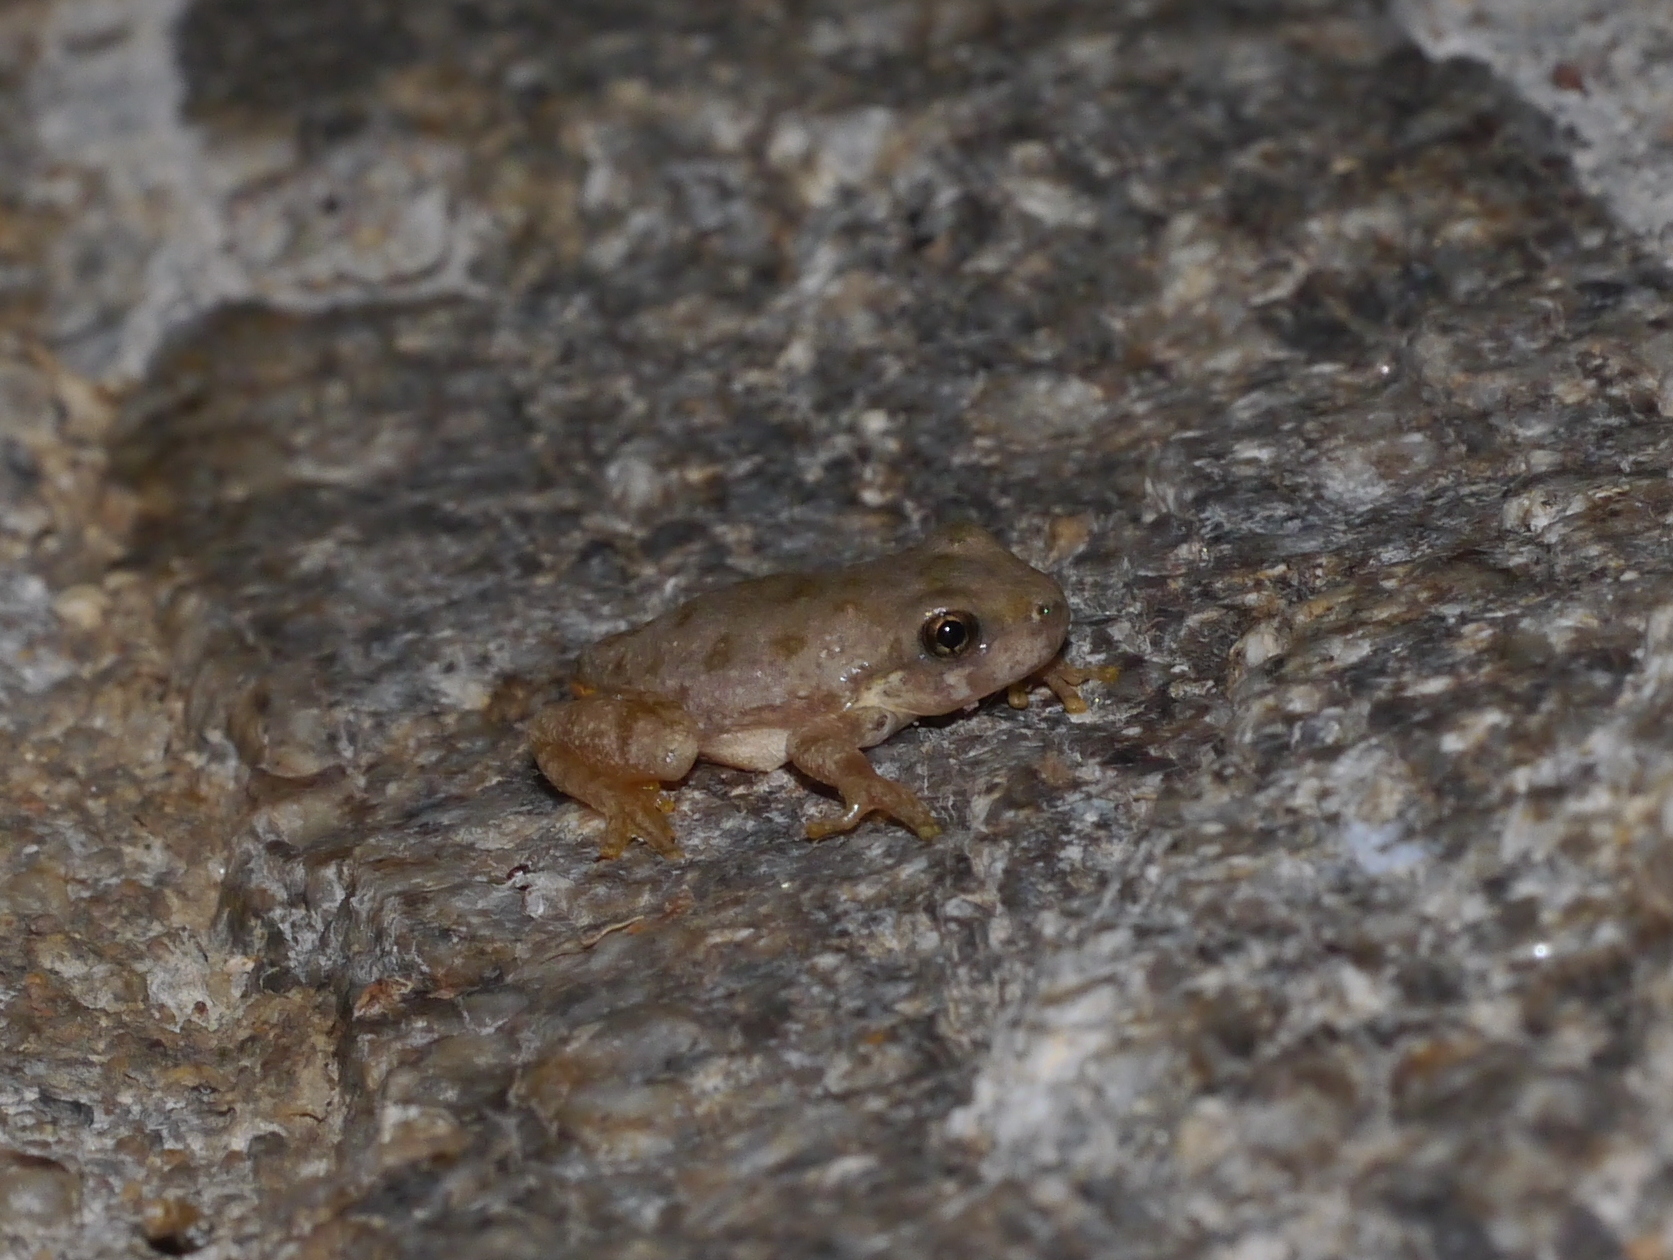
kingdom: Animalia
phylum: Chordata
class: Amphibia
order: Anura
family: Hylidae
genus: Dryophytes
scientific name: Dryophytes arenicolor
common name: Canyon treefrog
